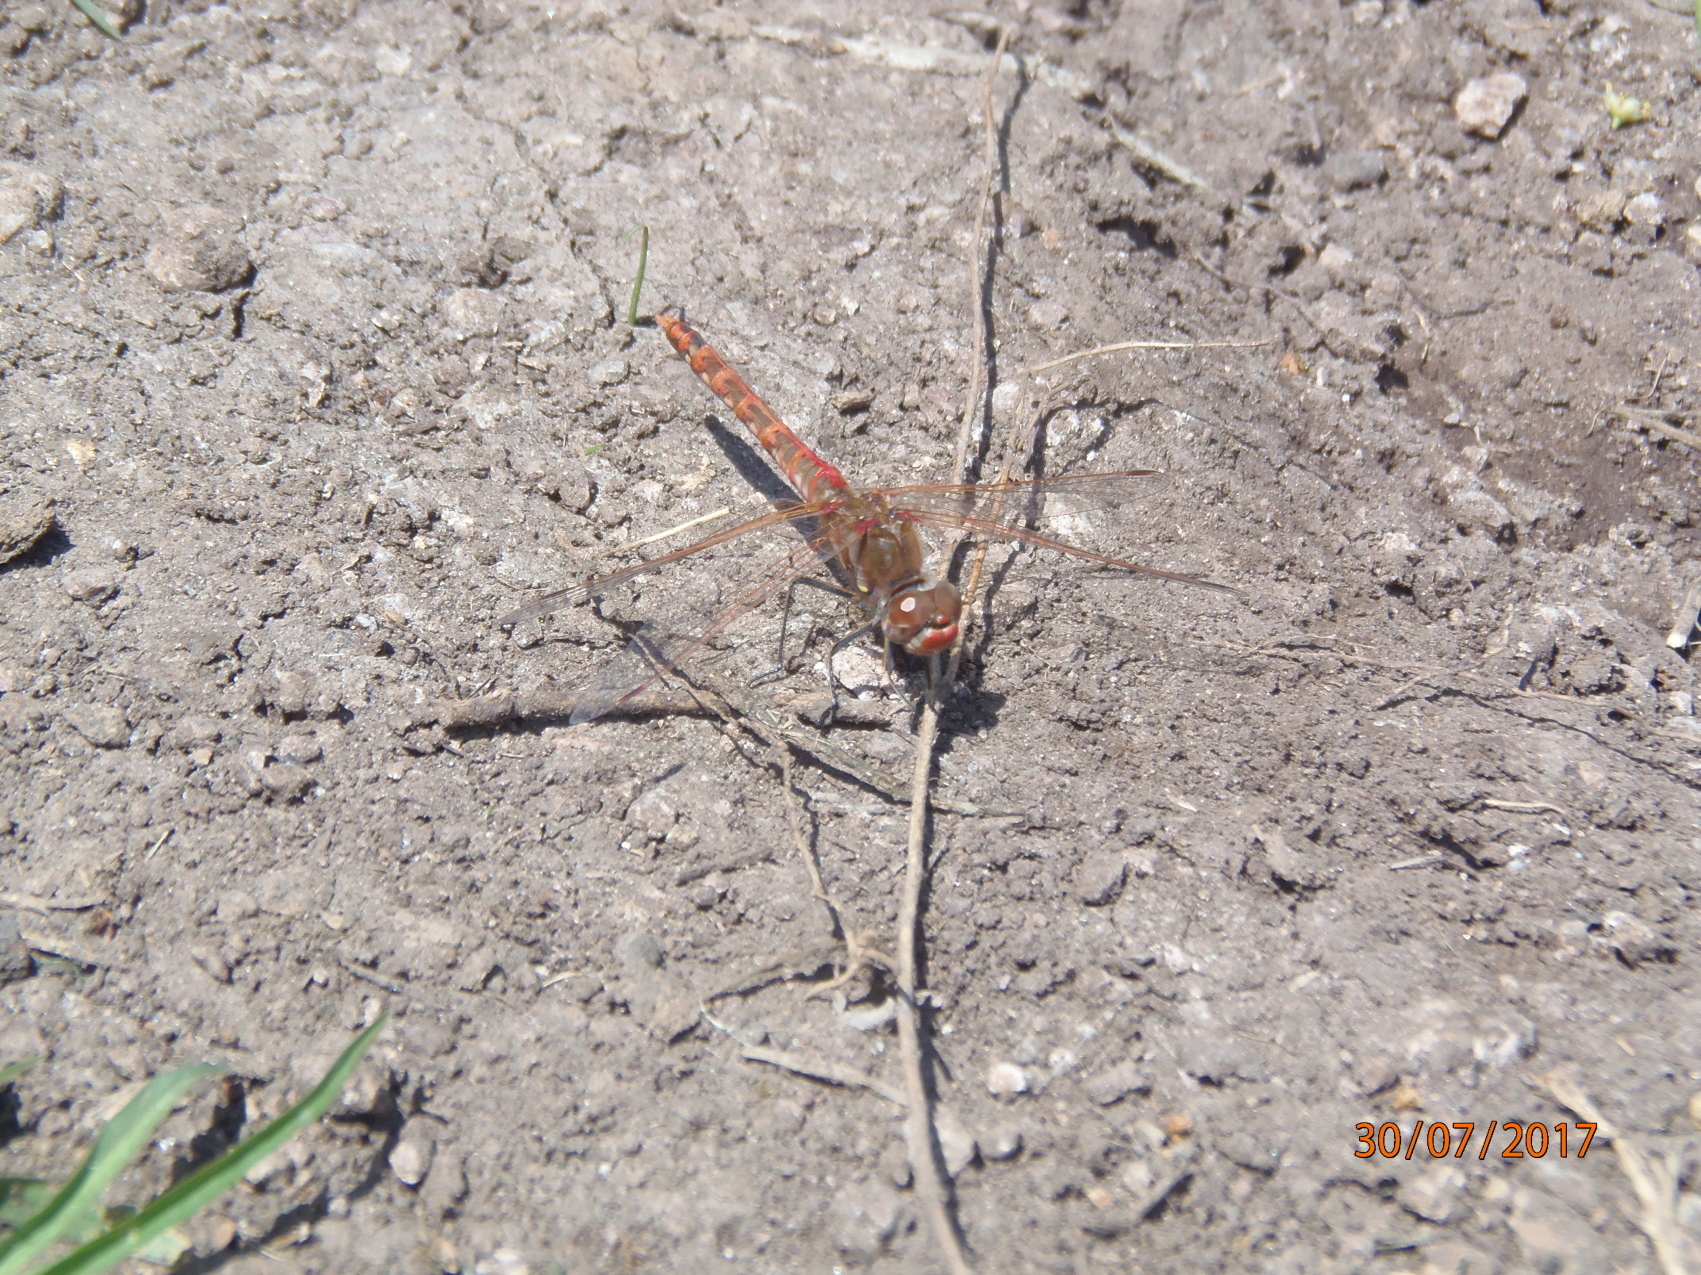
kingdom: Animalia
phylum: Arthropoda
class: Insecta
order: Odonata
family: Libellulidae
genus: Sympetrum
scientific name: Sympetrum corruptum
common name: Variegated meadowhawk
